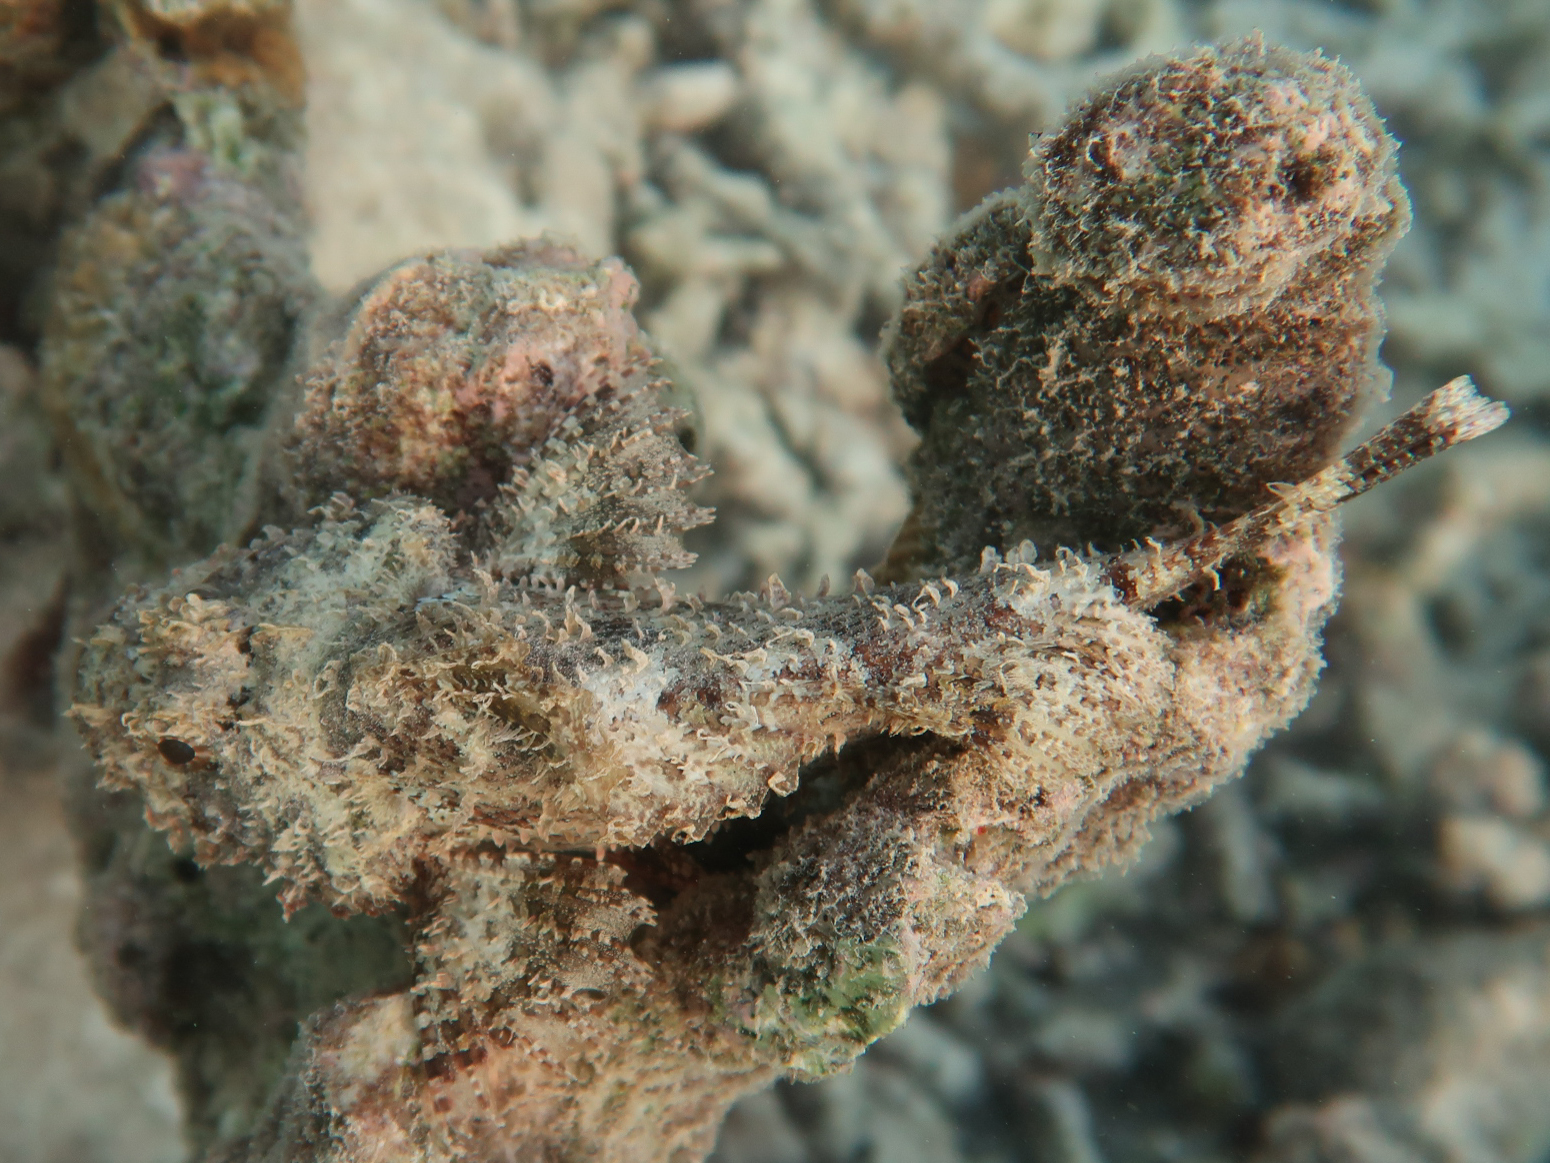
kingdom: Animalia
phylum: Chordata
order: Scorpaeniformes
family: Scorpaenidae
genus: Parascorpaena
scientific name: Parascorpaena picta
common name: Painted scorpionfish
